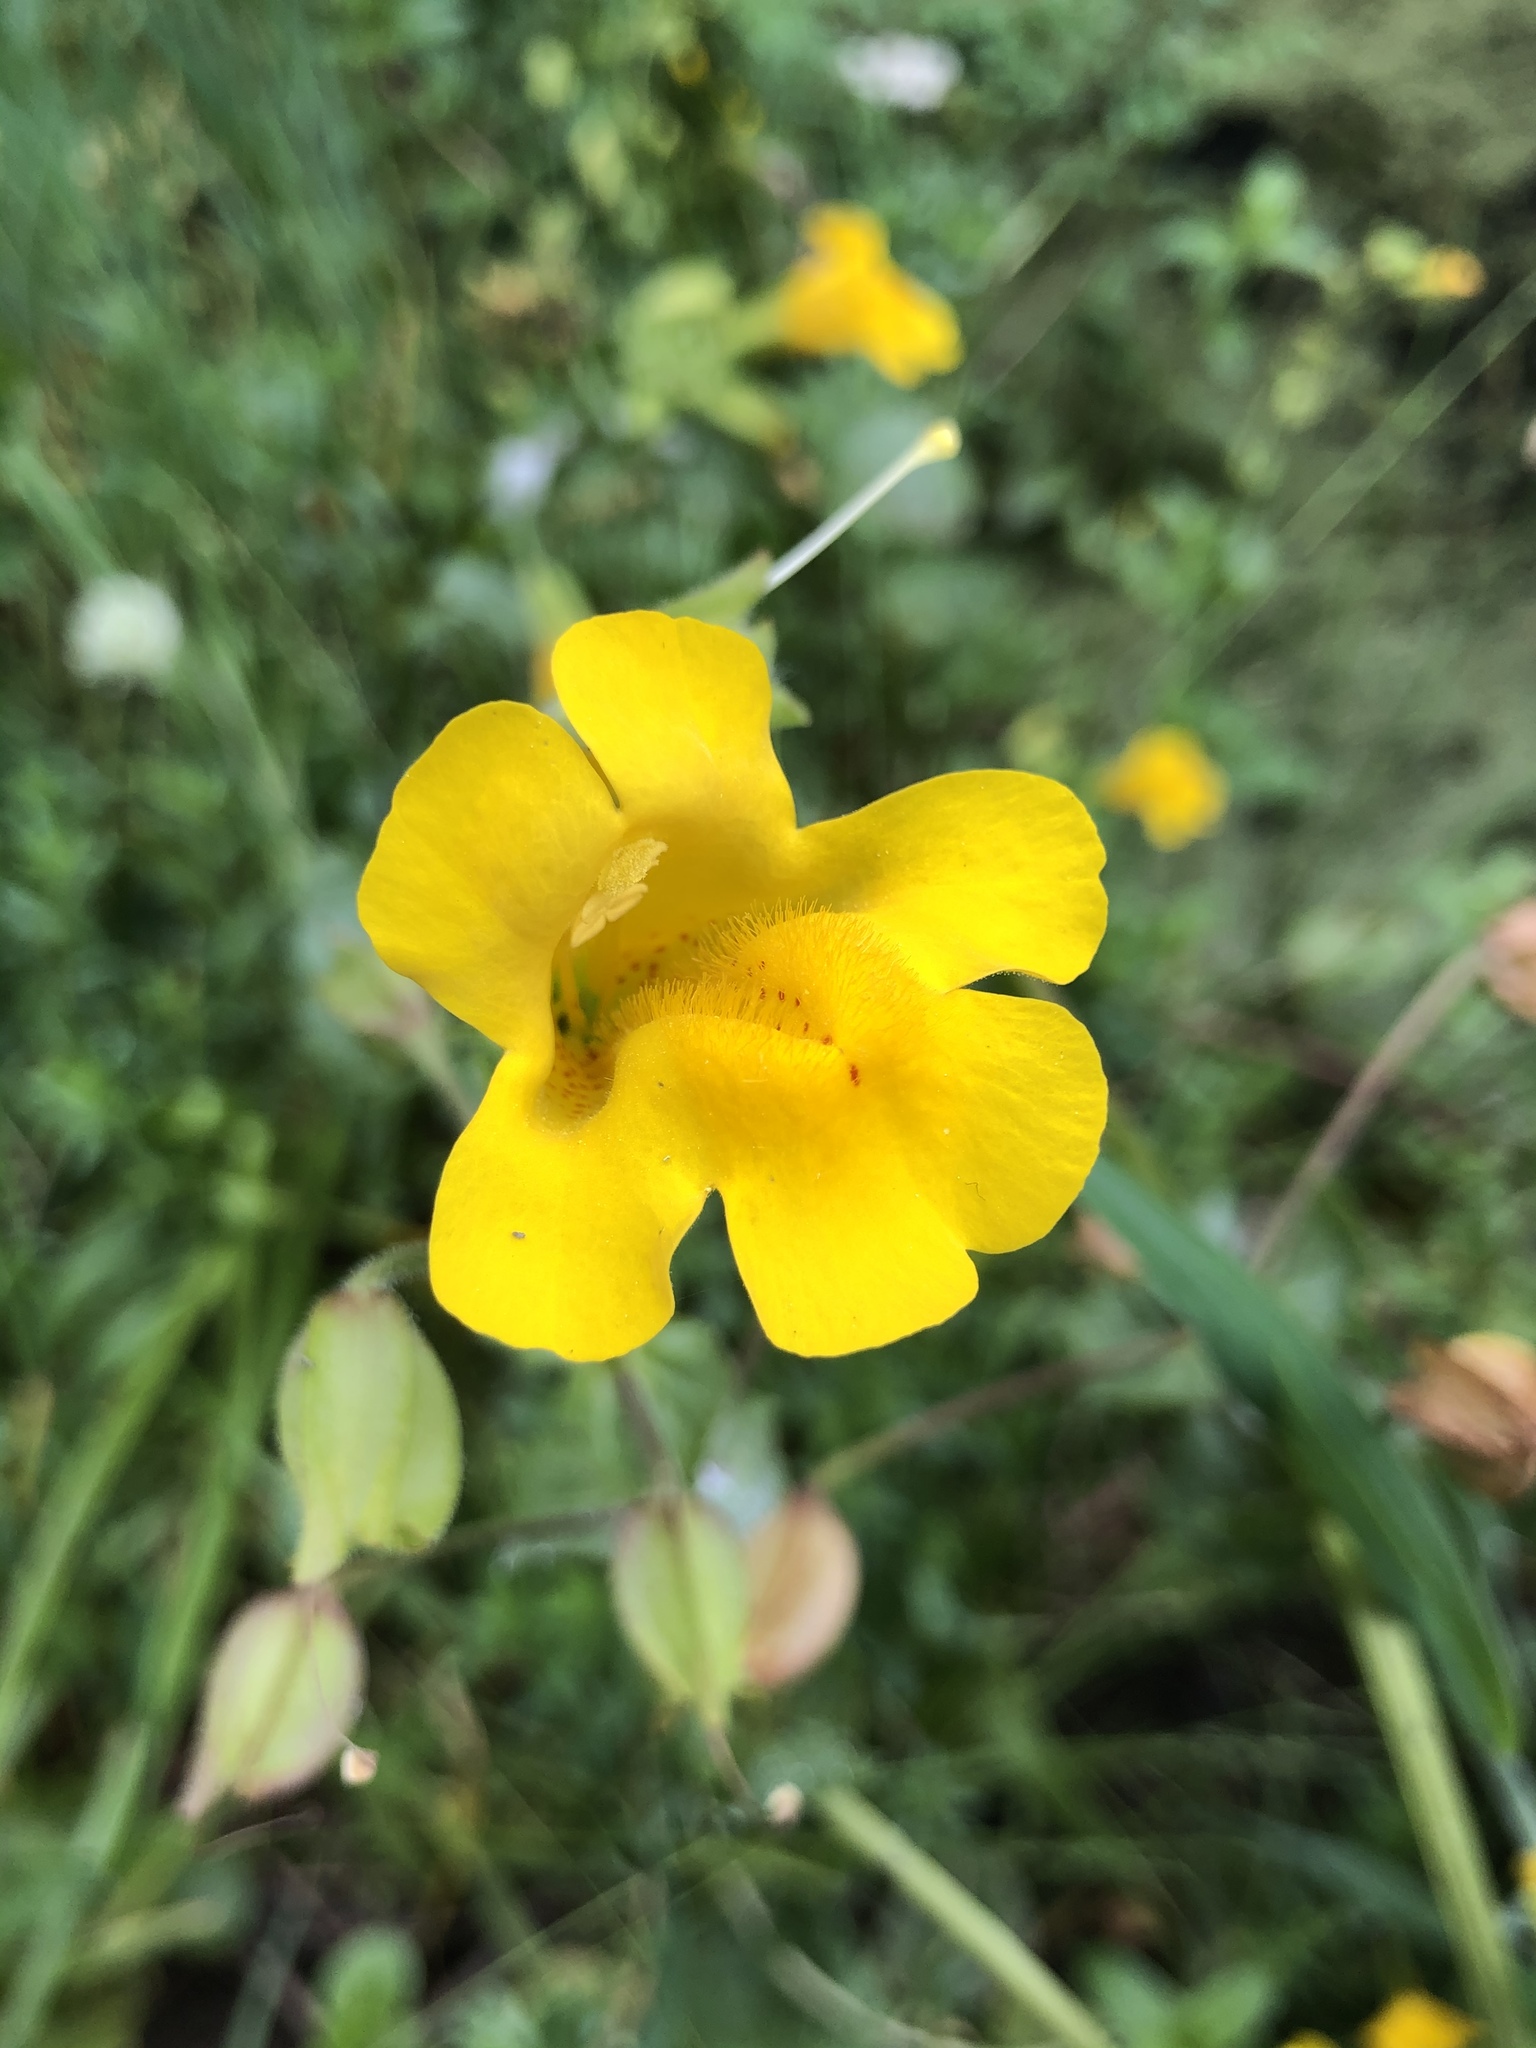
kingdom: Plantae
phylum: Tracheophyta
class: Magnoliopsida
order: Lamiales
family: Phrymaceae
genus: Erythranthe
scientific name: Erythranthe guttata
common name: Monkeyflower
